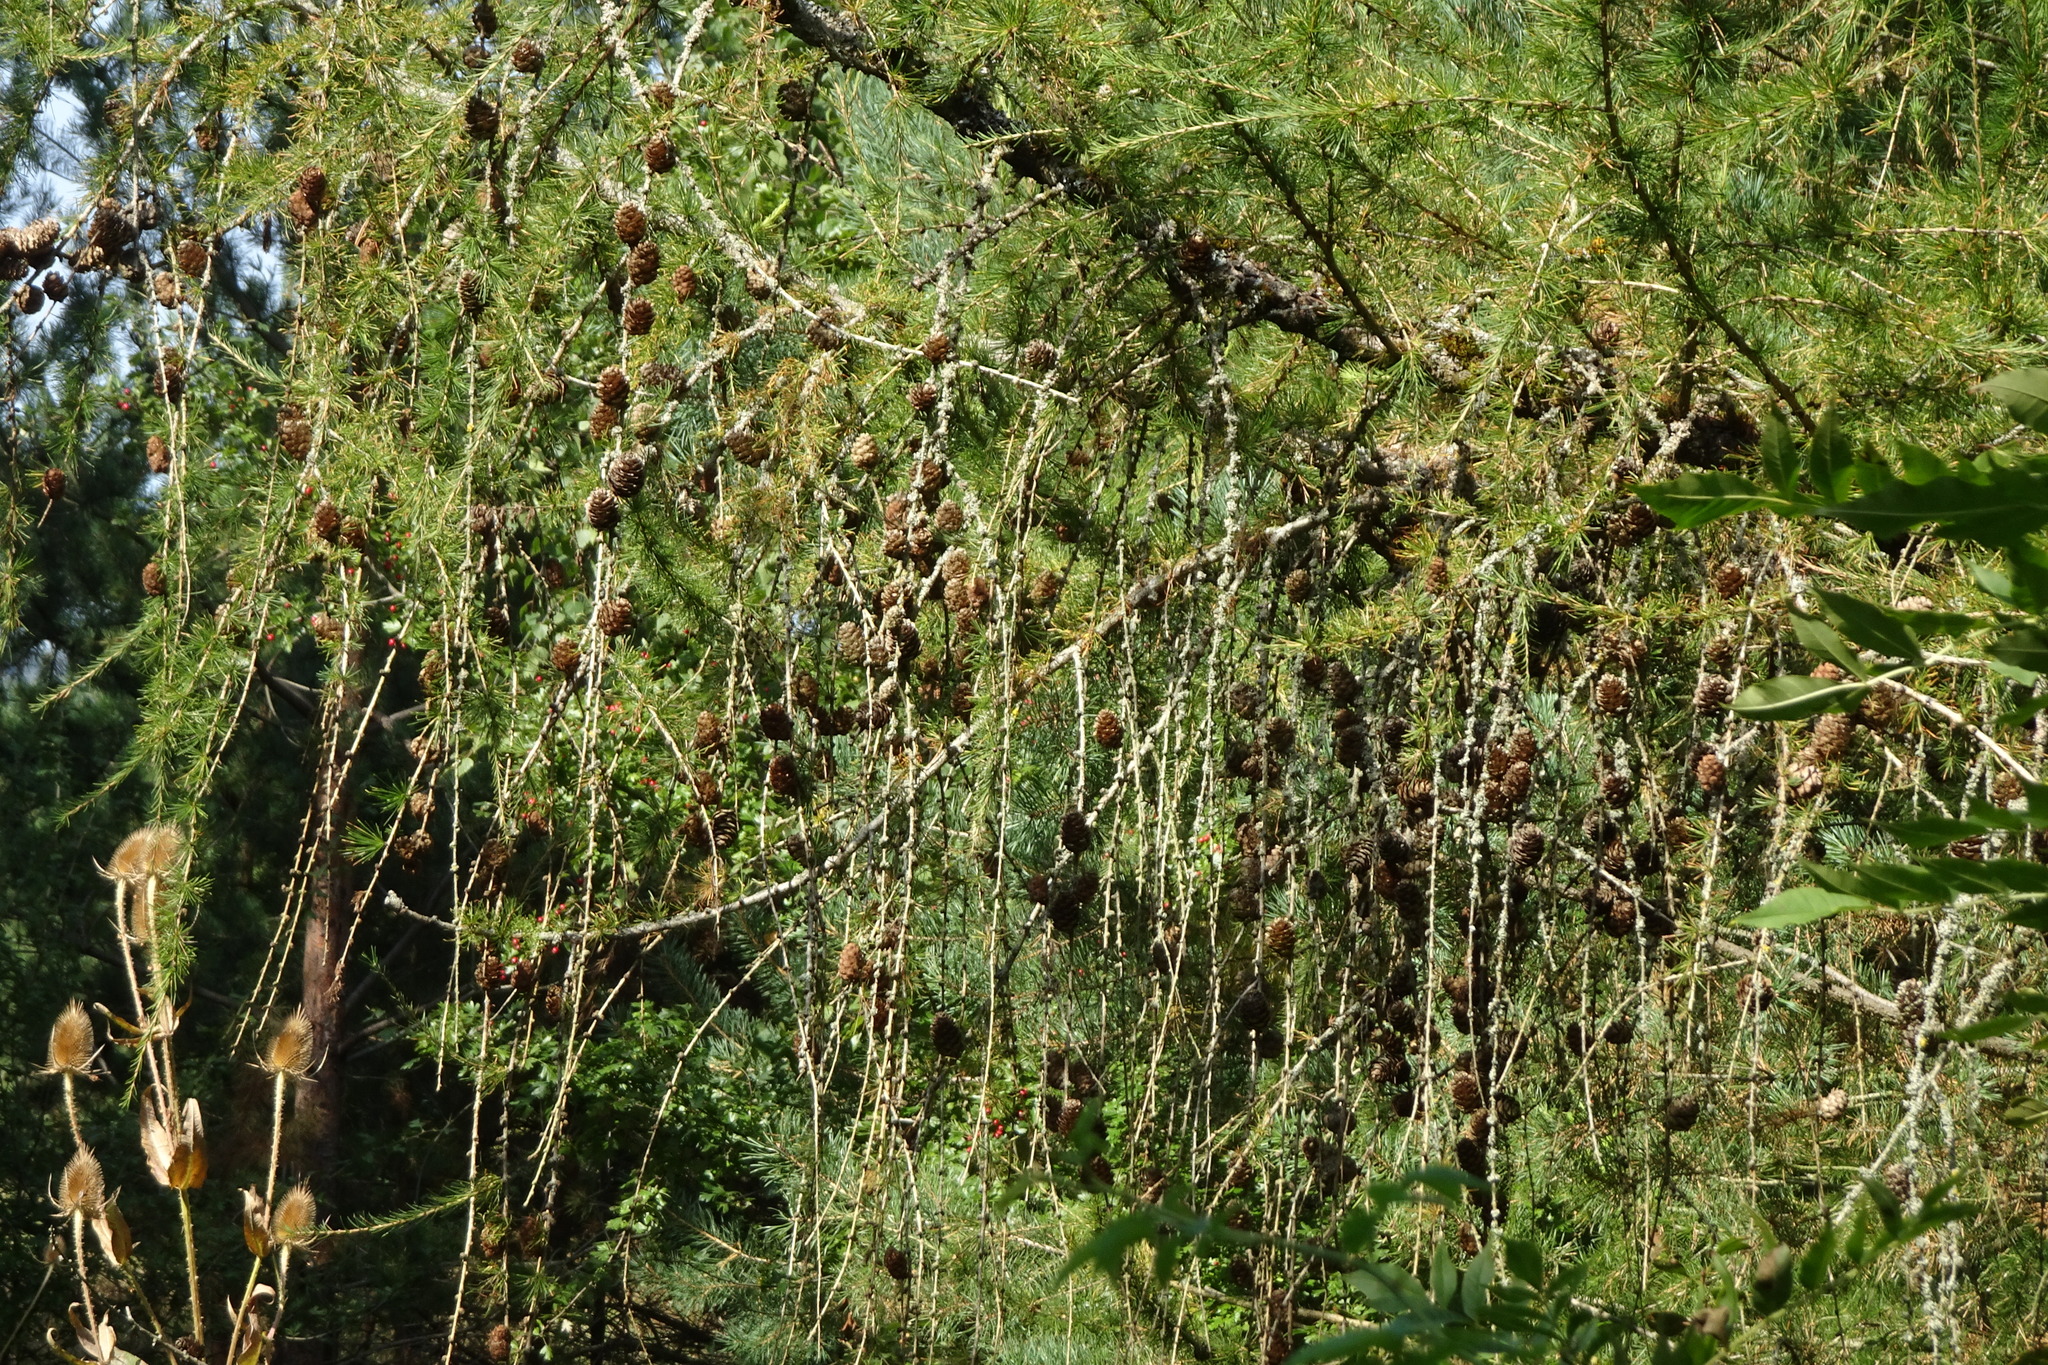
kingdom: Plantae
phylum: Tracheophyta
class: Pinopsida
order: Pinales
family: Pinaceae
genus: Larix
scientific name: Larix decidua
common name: European larch
